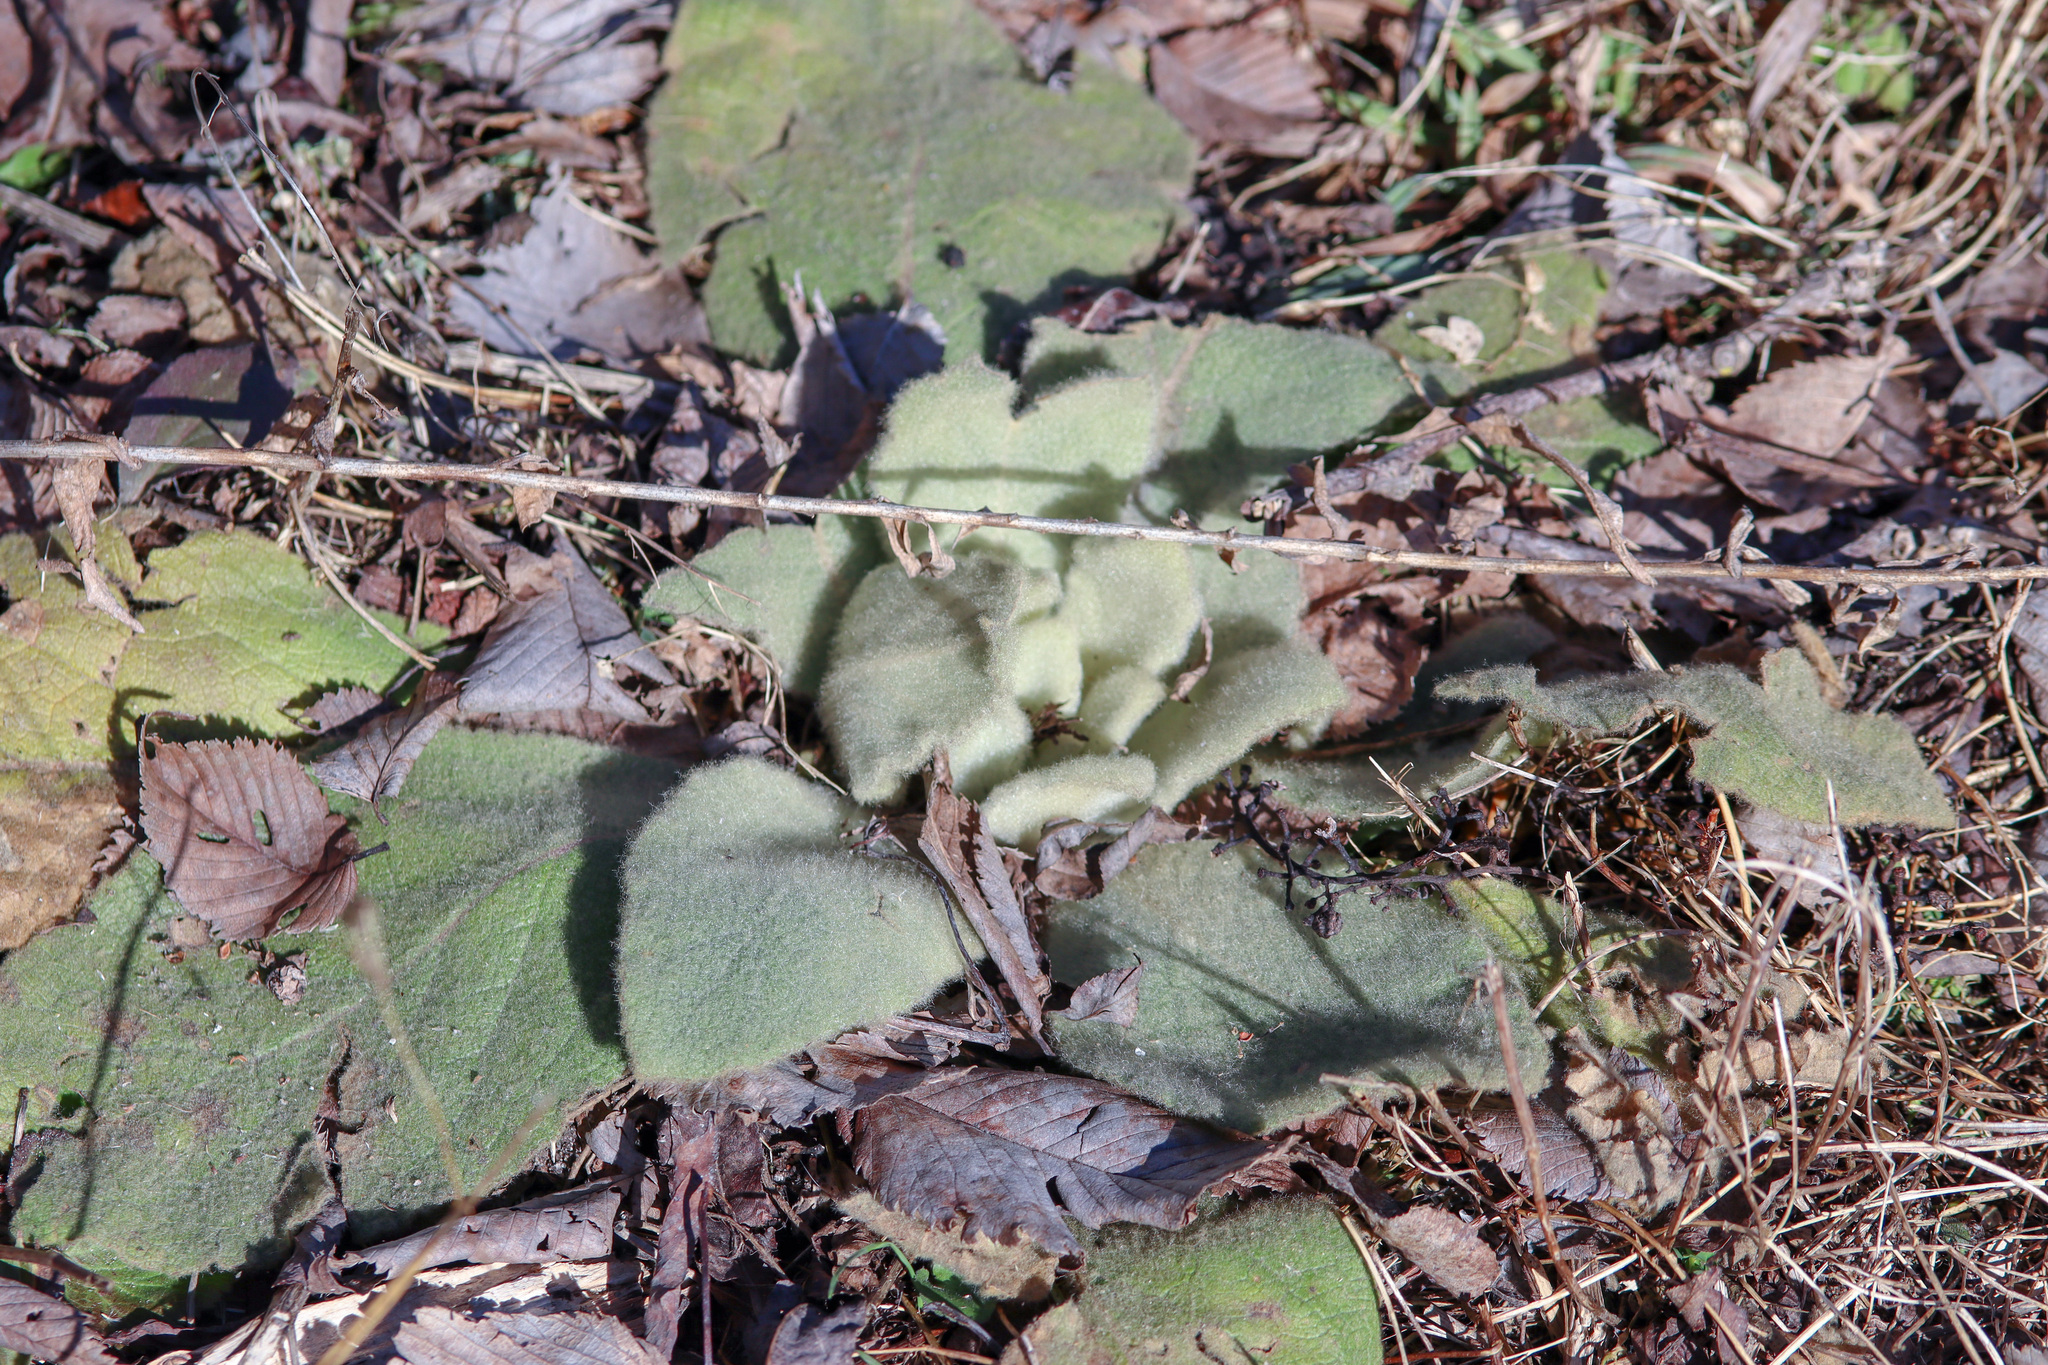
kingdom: Plantae
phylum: Tracheophyta
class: Magnoliopsida
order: Lamiales
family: Scrophulariaceae
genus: Verbascum
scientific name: Verbascum thapsus
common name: Common mullein
